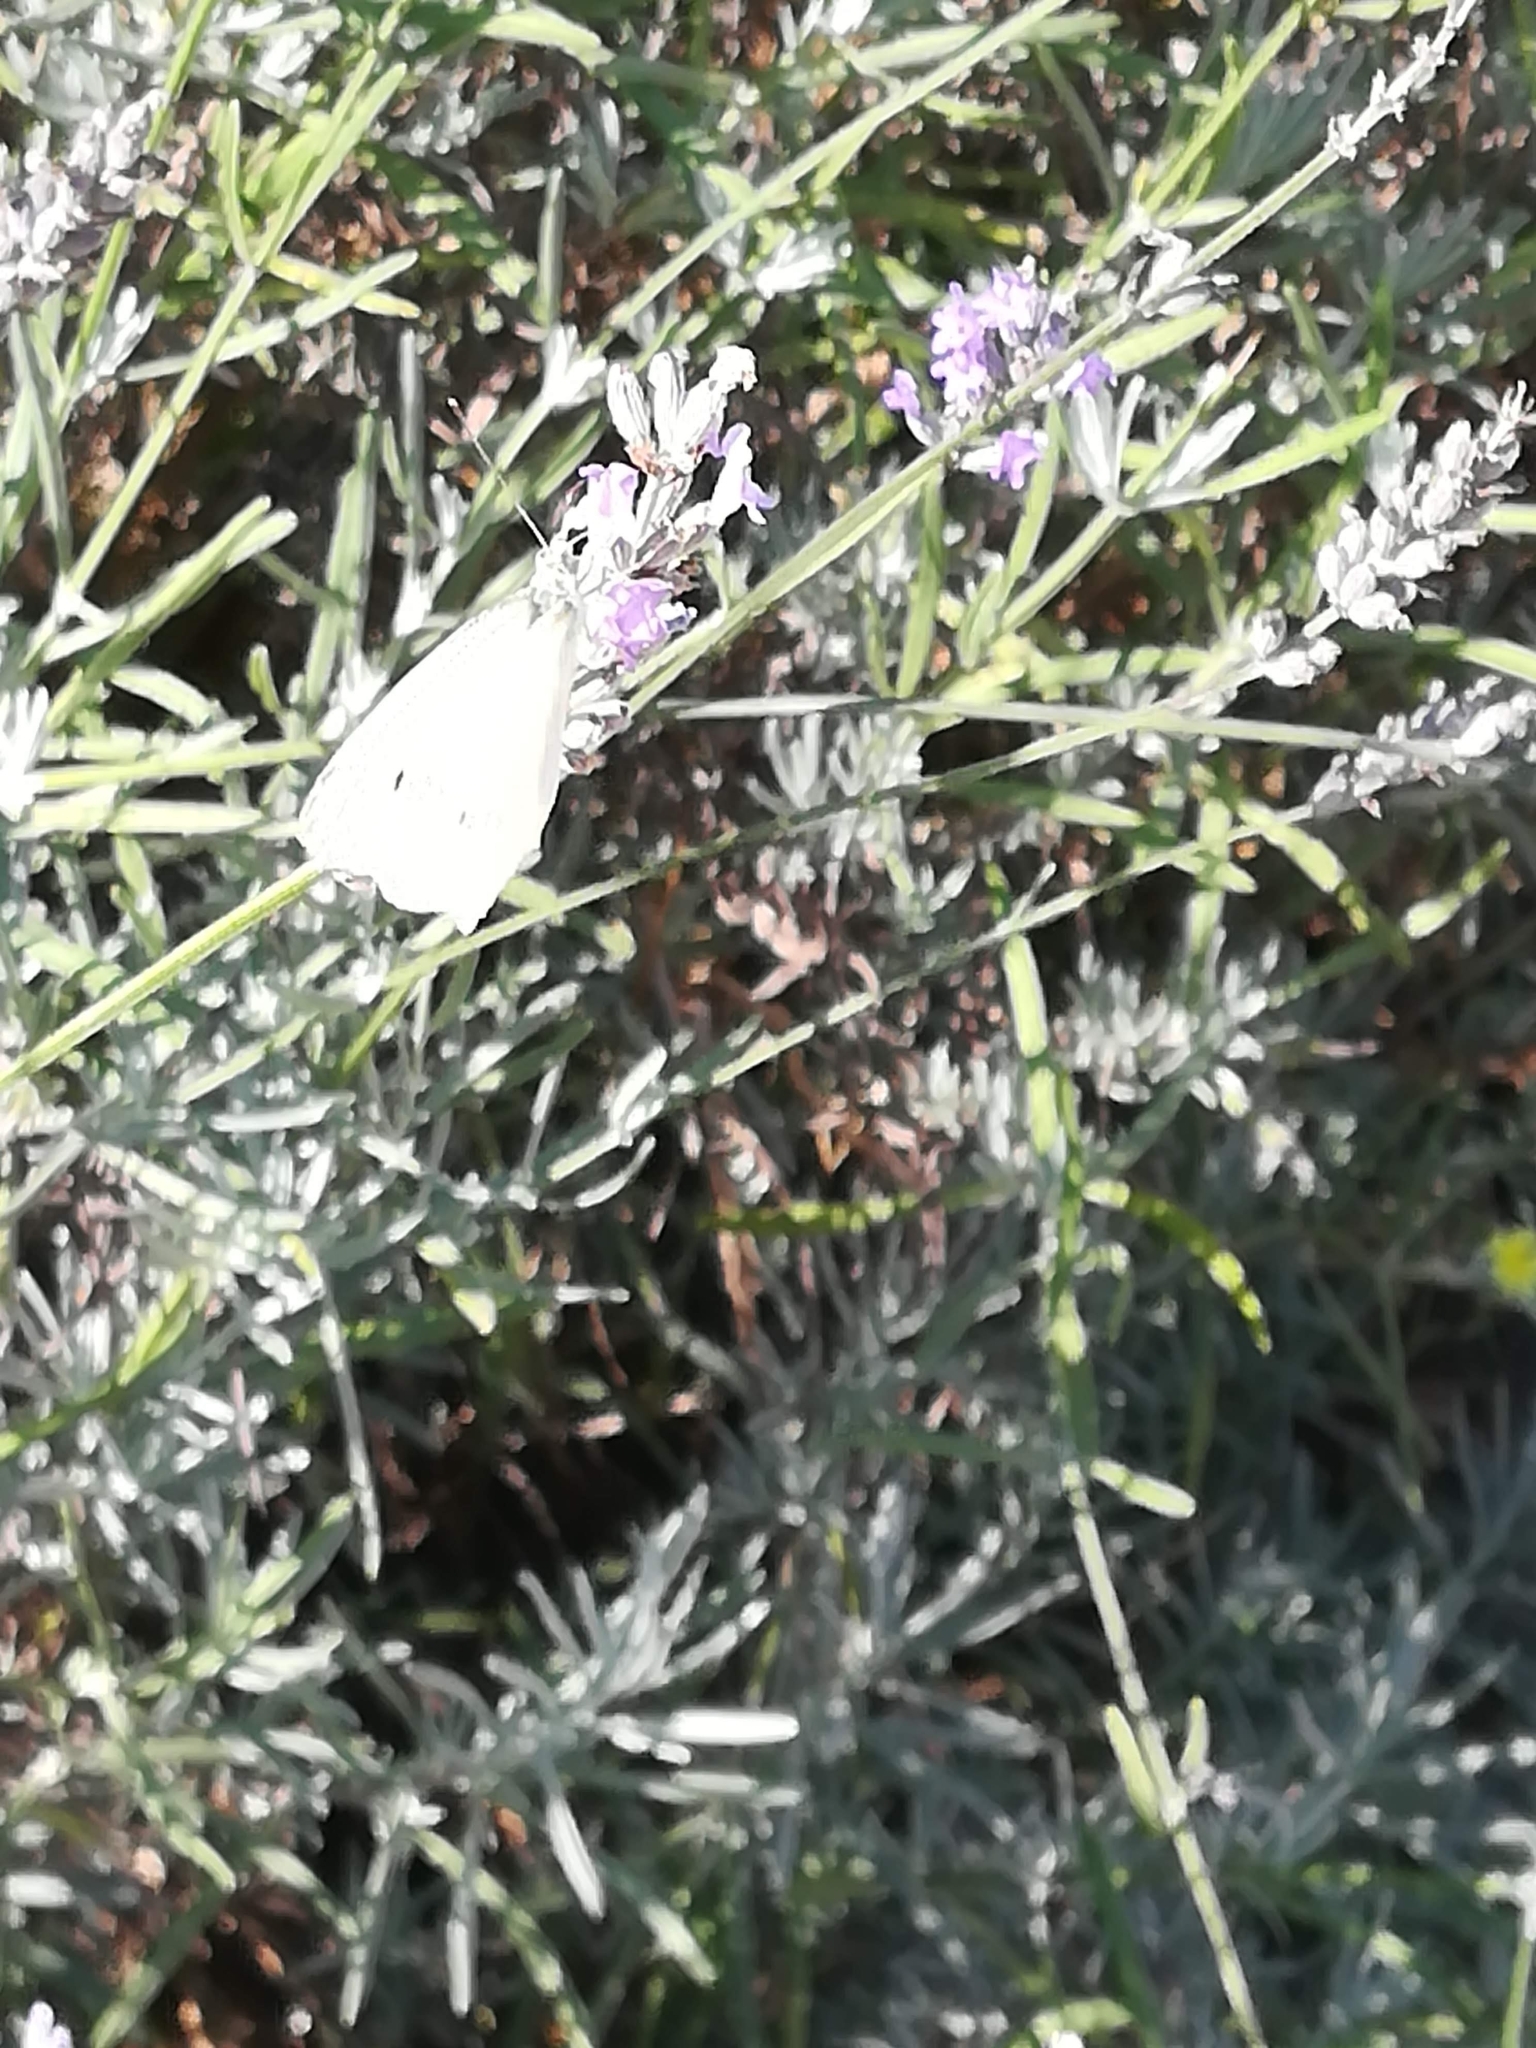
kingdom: Animalia
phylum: Arthropoda
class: Insecta
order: Lepidoptera
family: Pieridae
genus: Pieris
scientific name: Pieris rapae
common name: Small white
